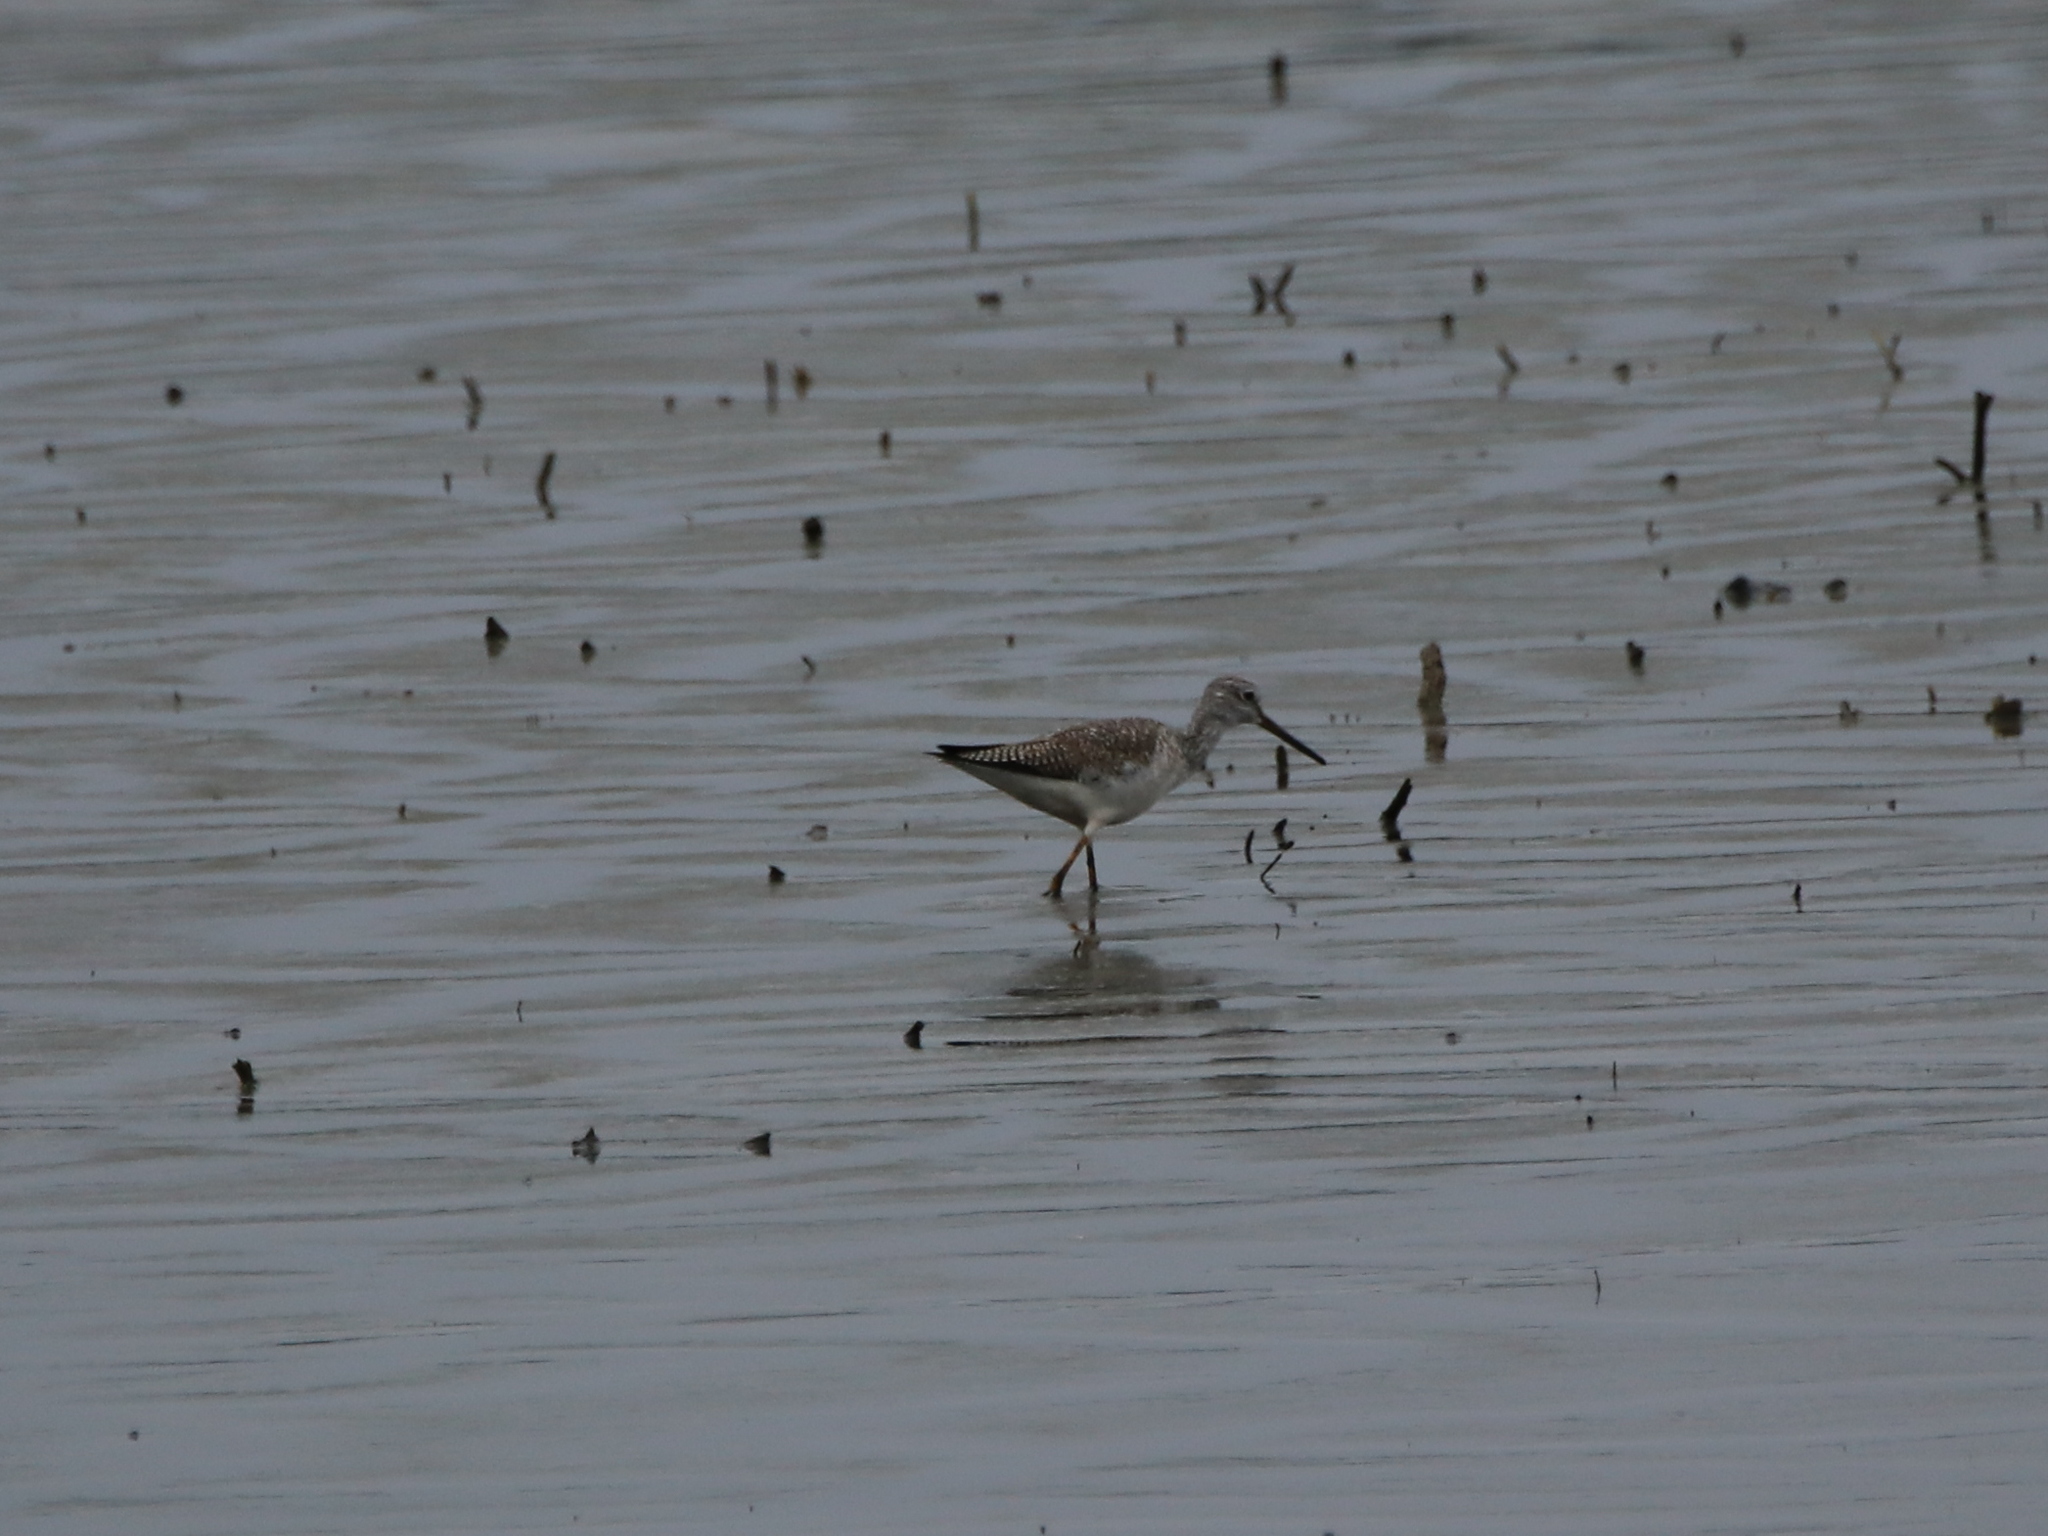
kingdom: Animalia
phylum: Chordata
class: Aves
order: Charadriiformes
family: Scolopacidae
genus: Tringa
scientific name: Tringa melanoleuca
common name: Greater yellowlegs
